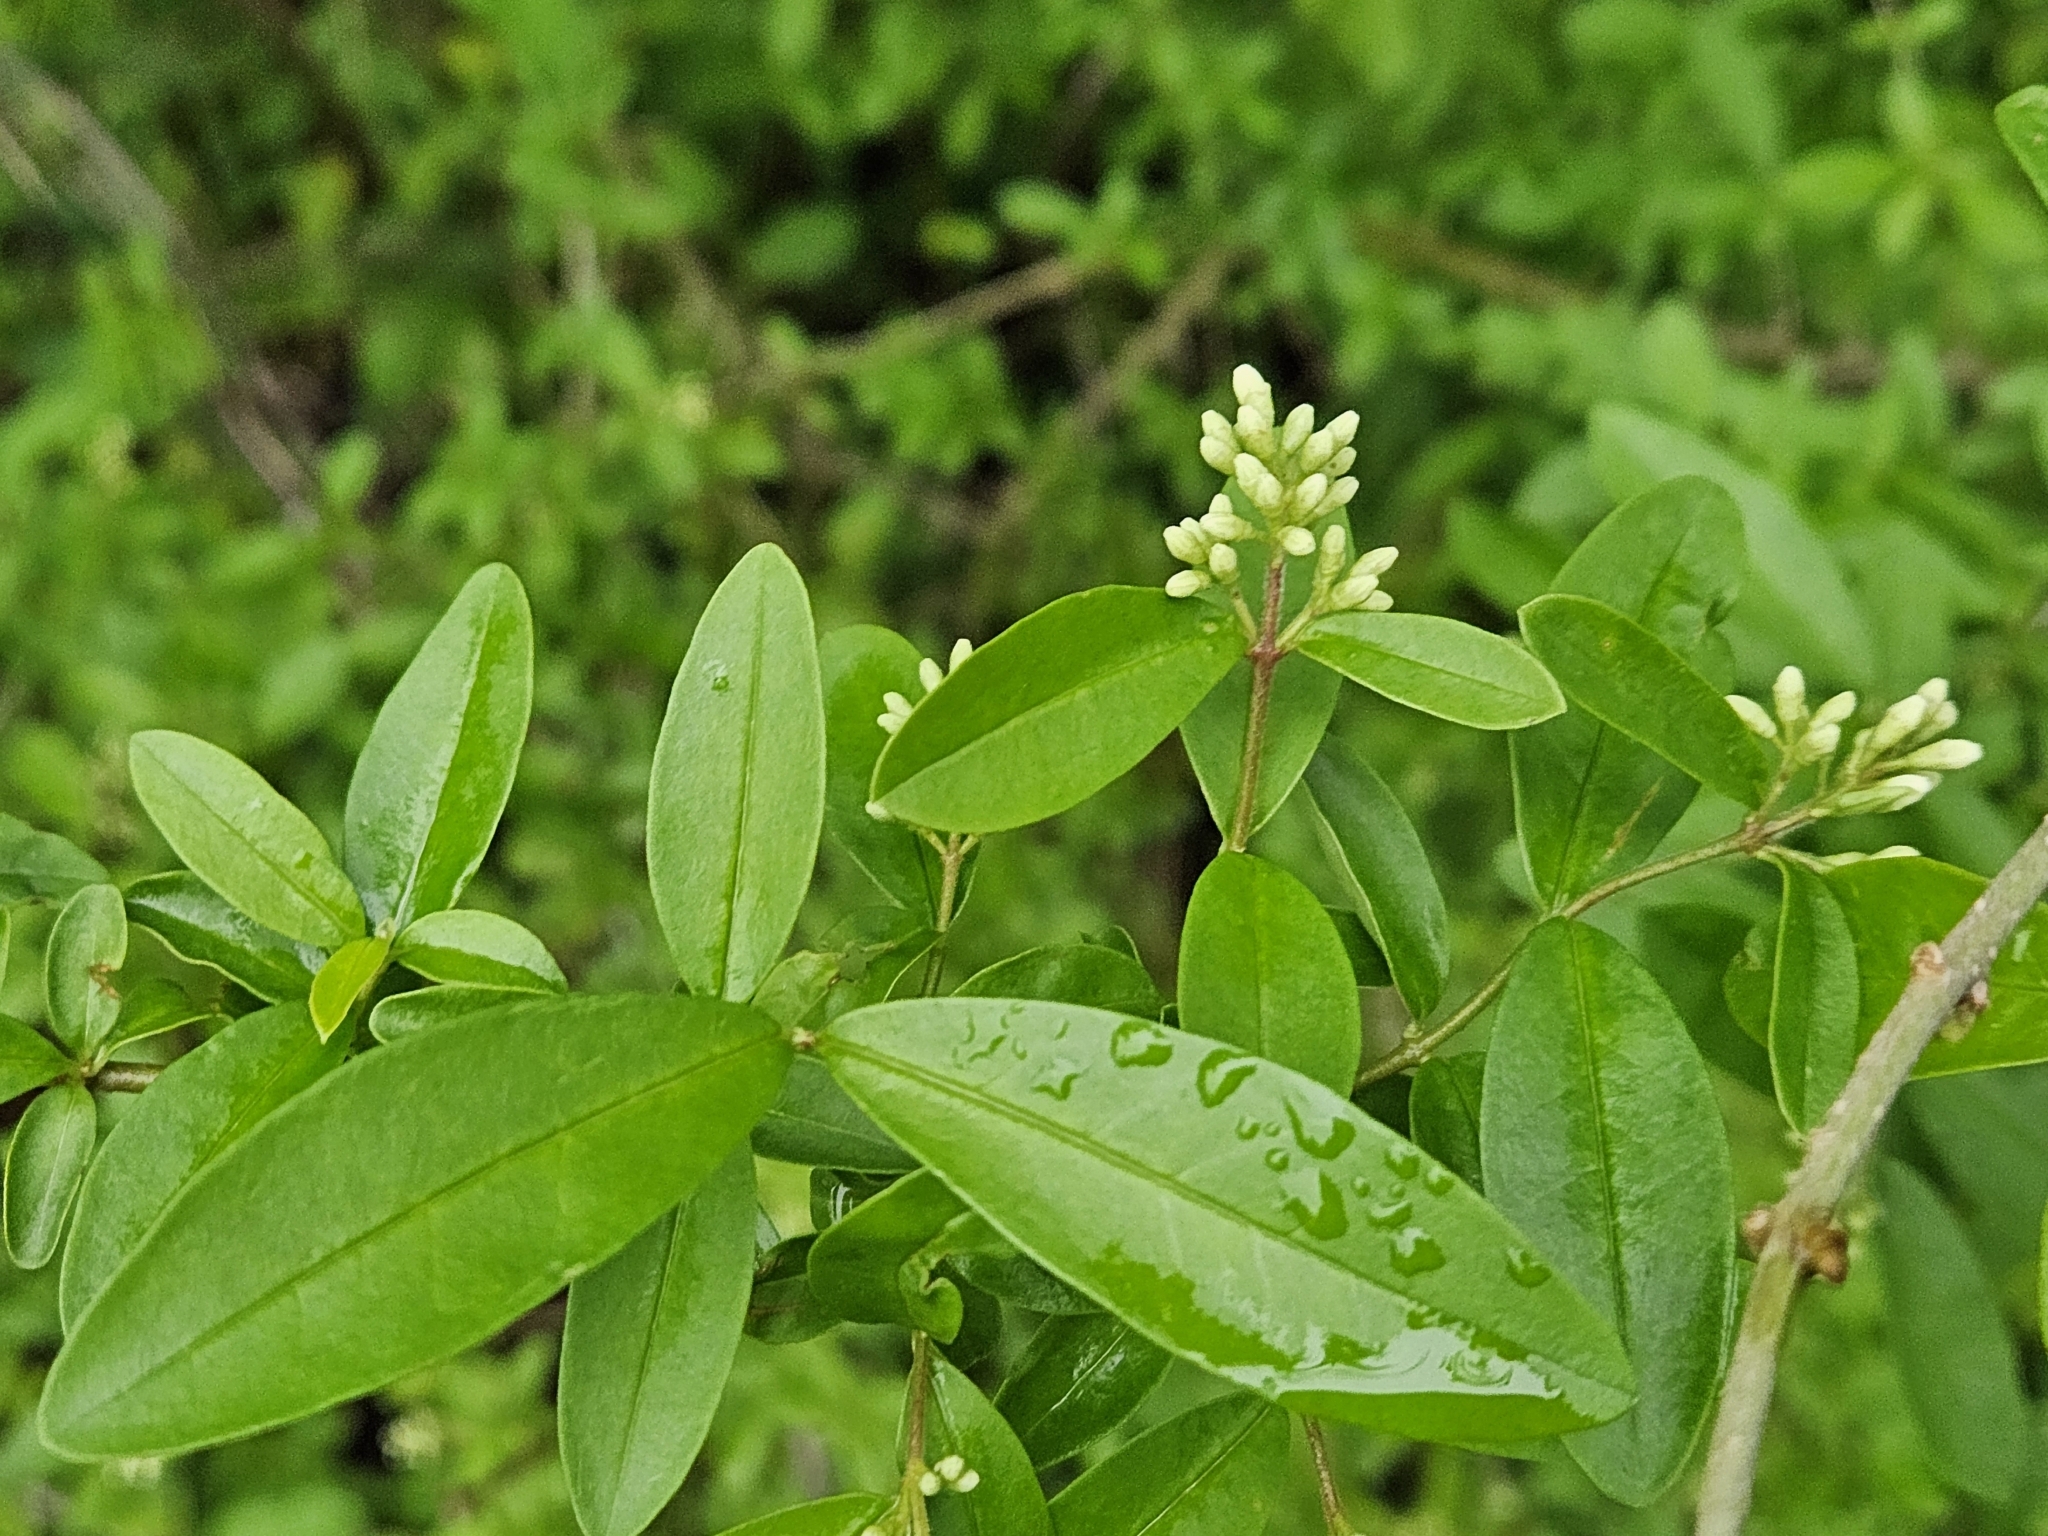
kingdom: Plantae
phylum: Tracheophyta
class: Magnoliopsida
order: Lamiales
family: Oleaceae
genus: Ligustrum
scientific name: Ligustrum obtusifolium
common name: Border privet
